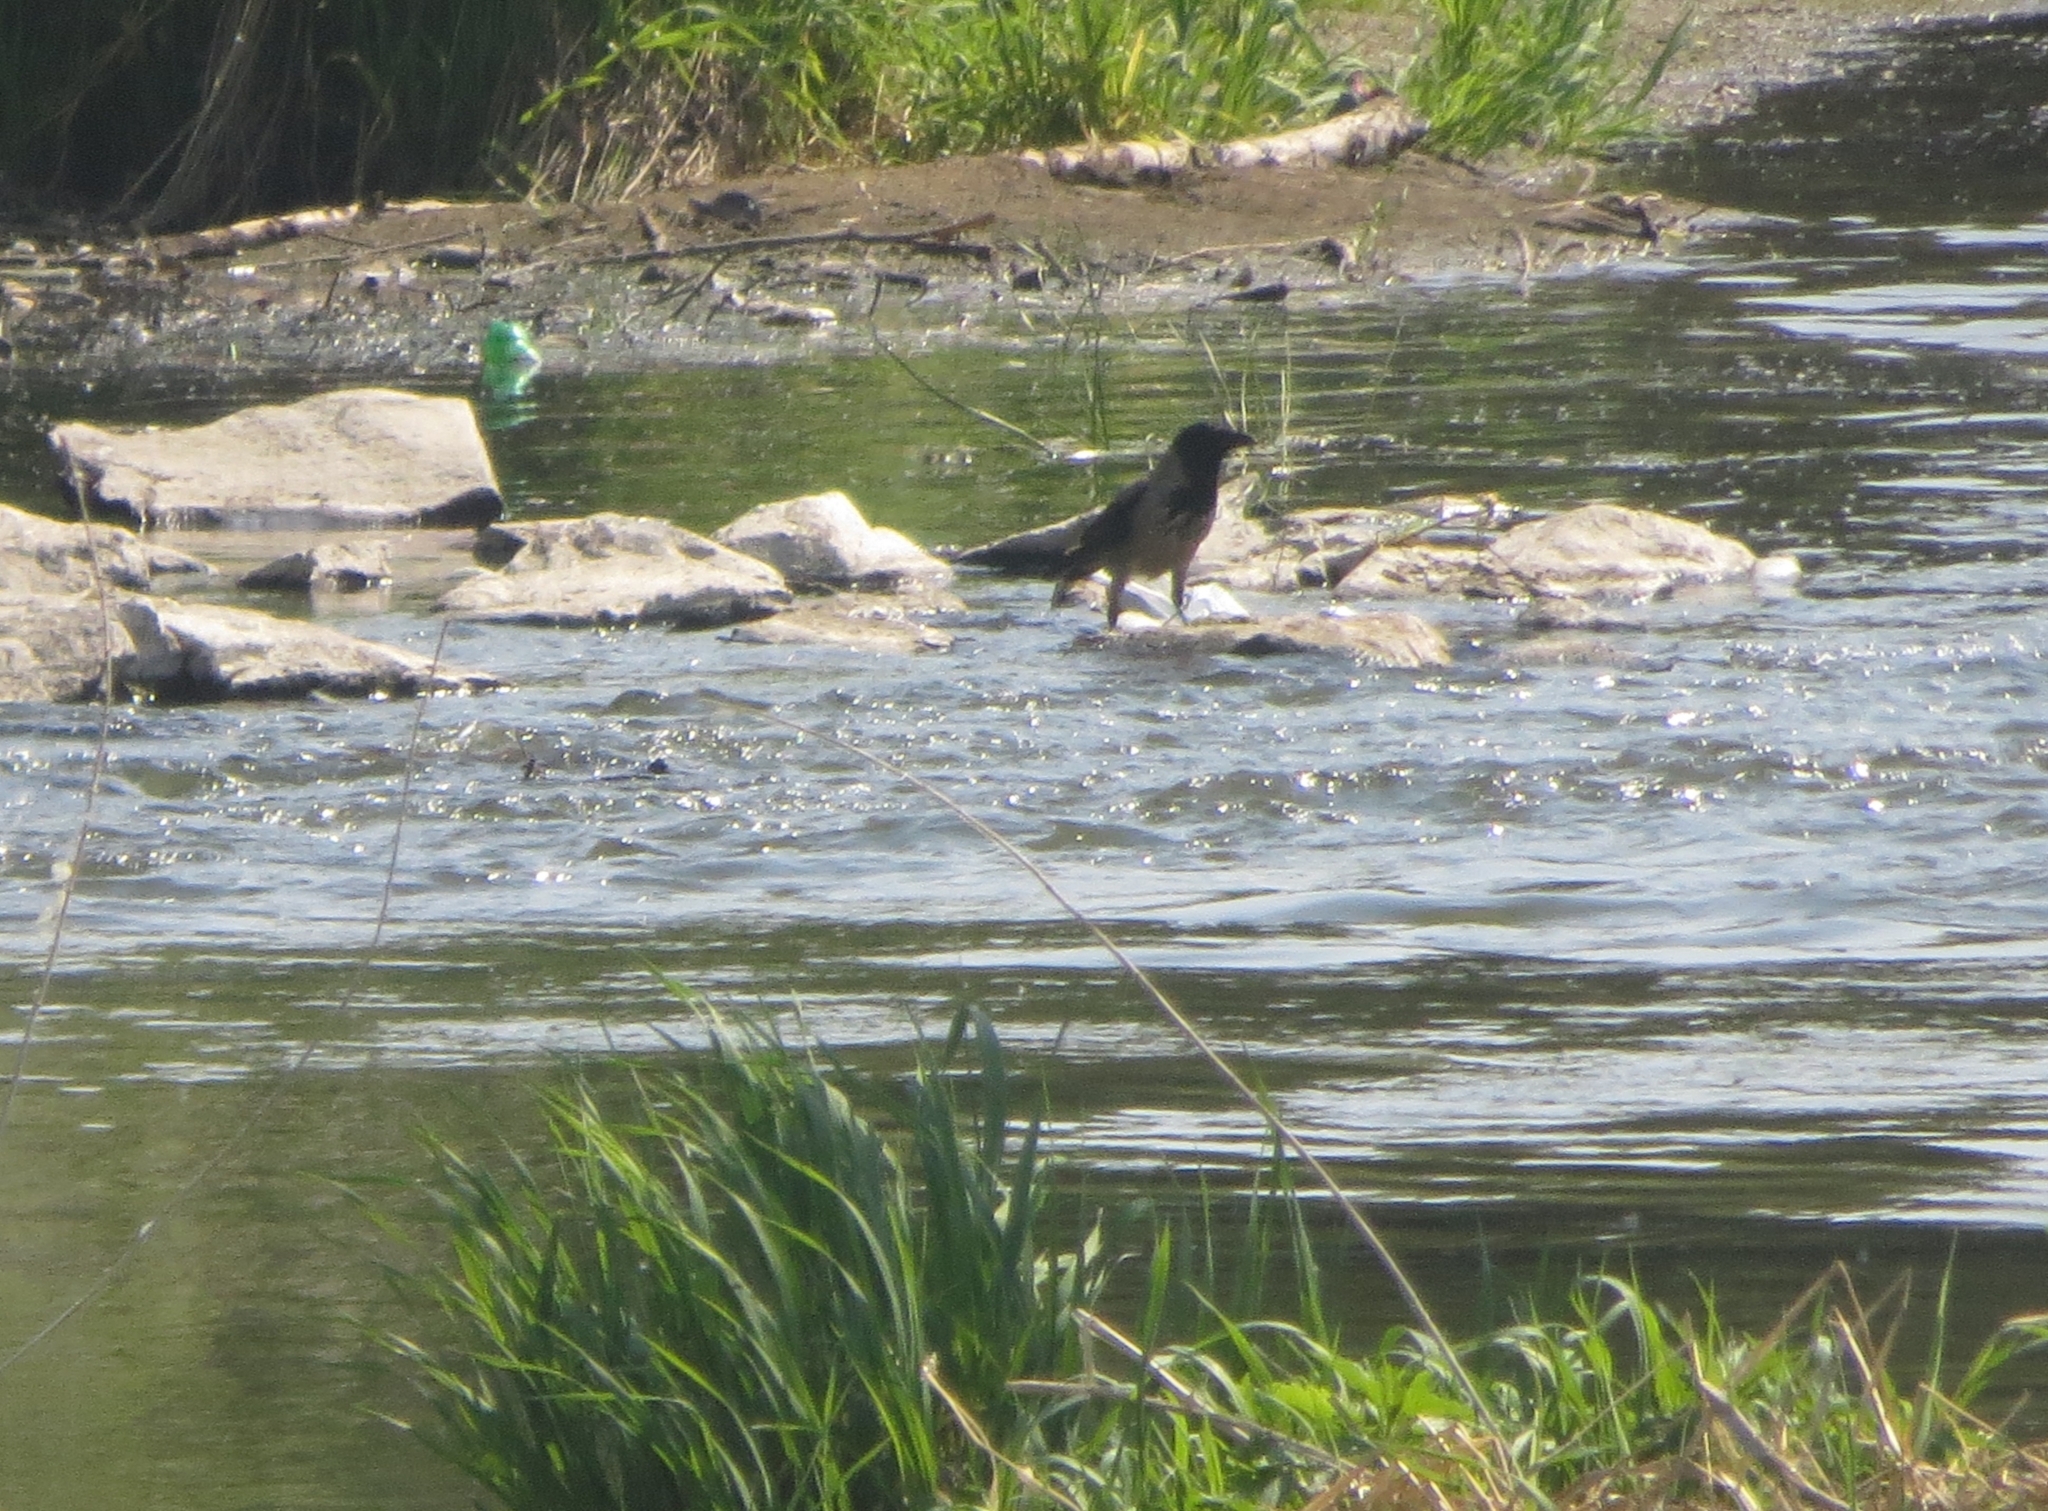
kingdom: Animalia
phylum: Chordata
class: Aves
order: Passeriformes
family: Corvidae
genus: Corvus
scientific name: Corvus cornix
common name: Hooded crow
